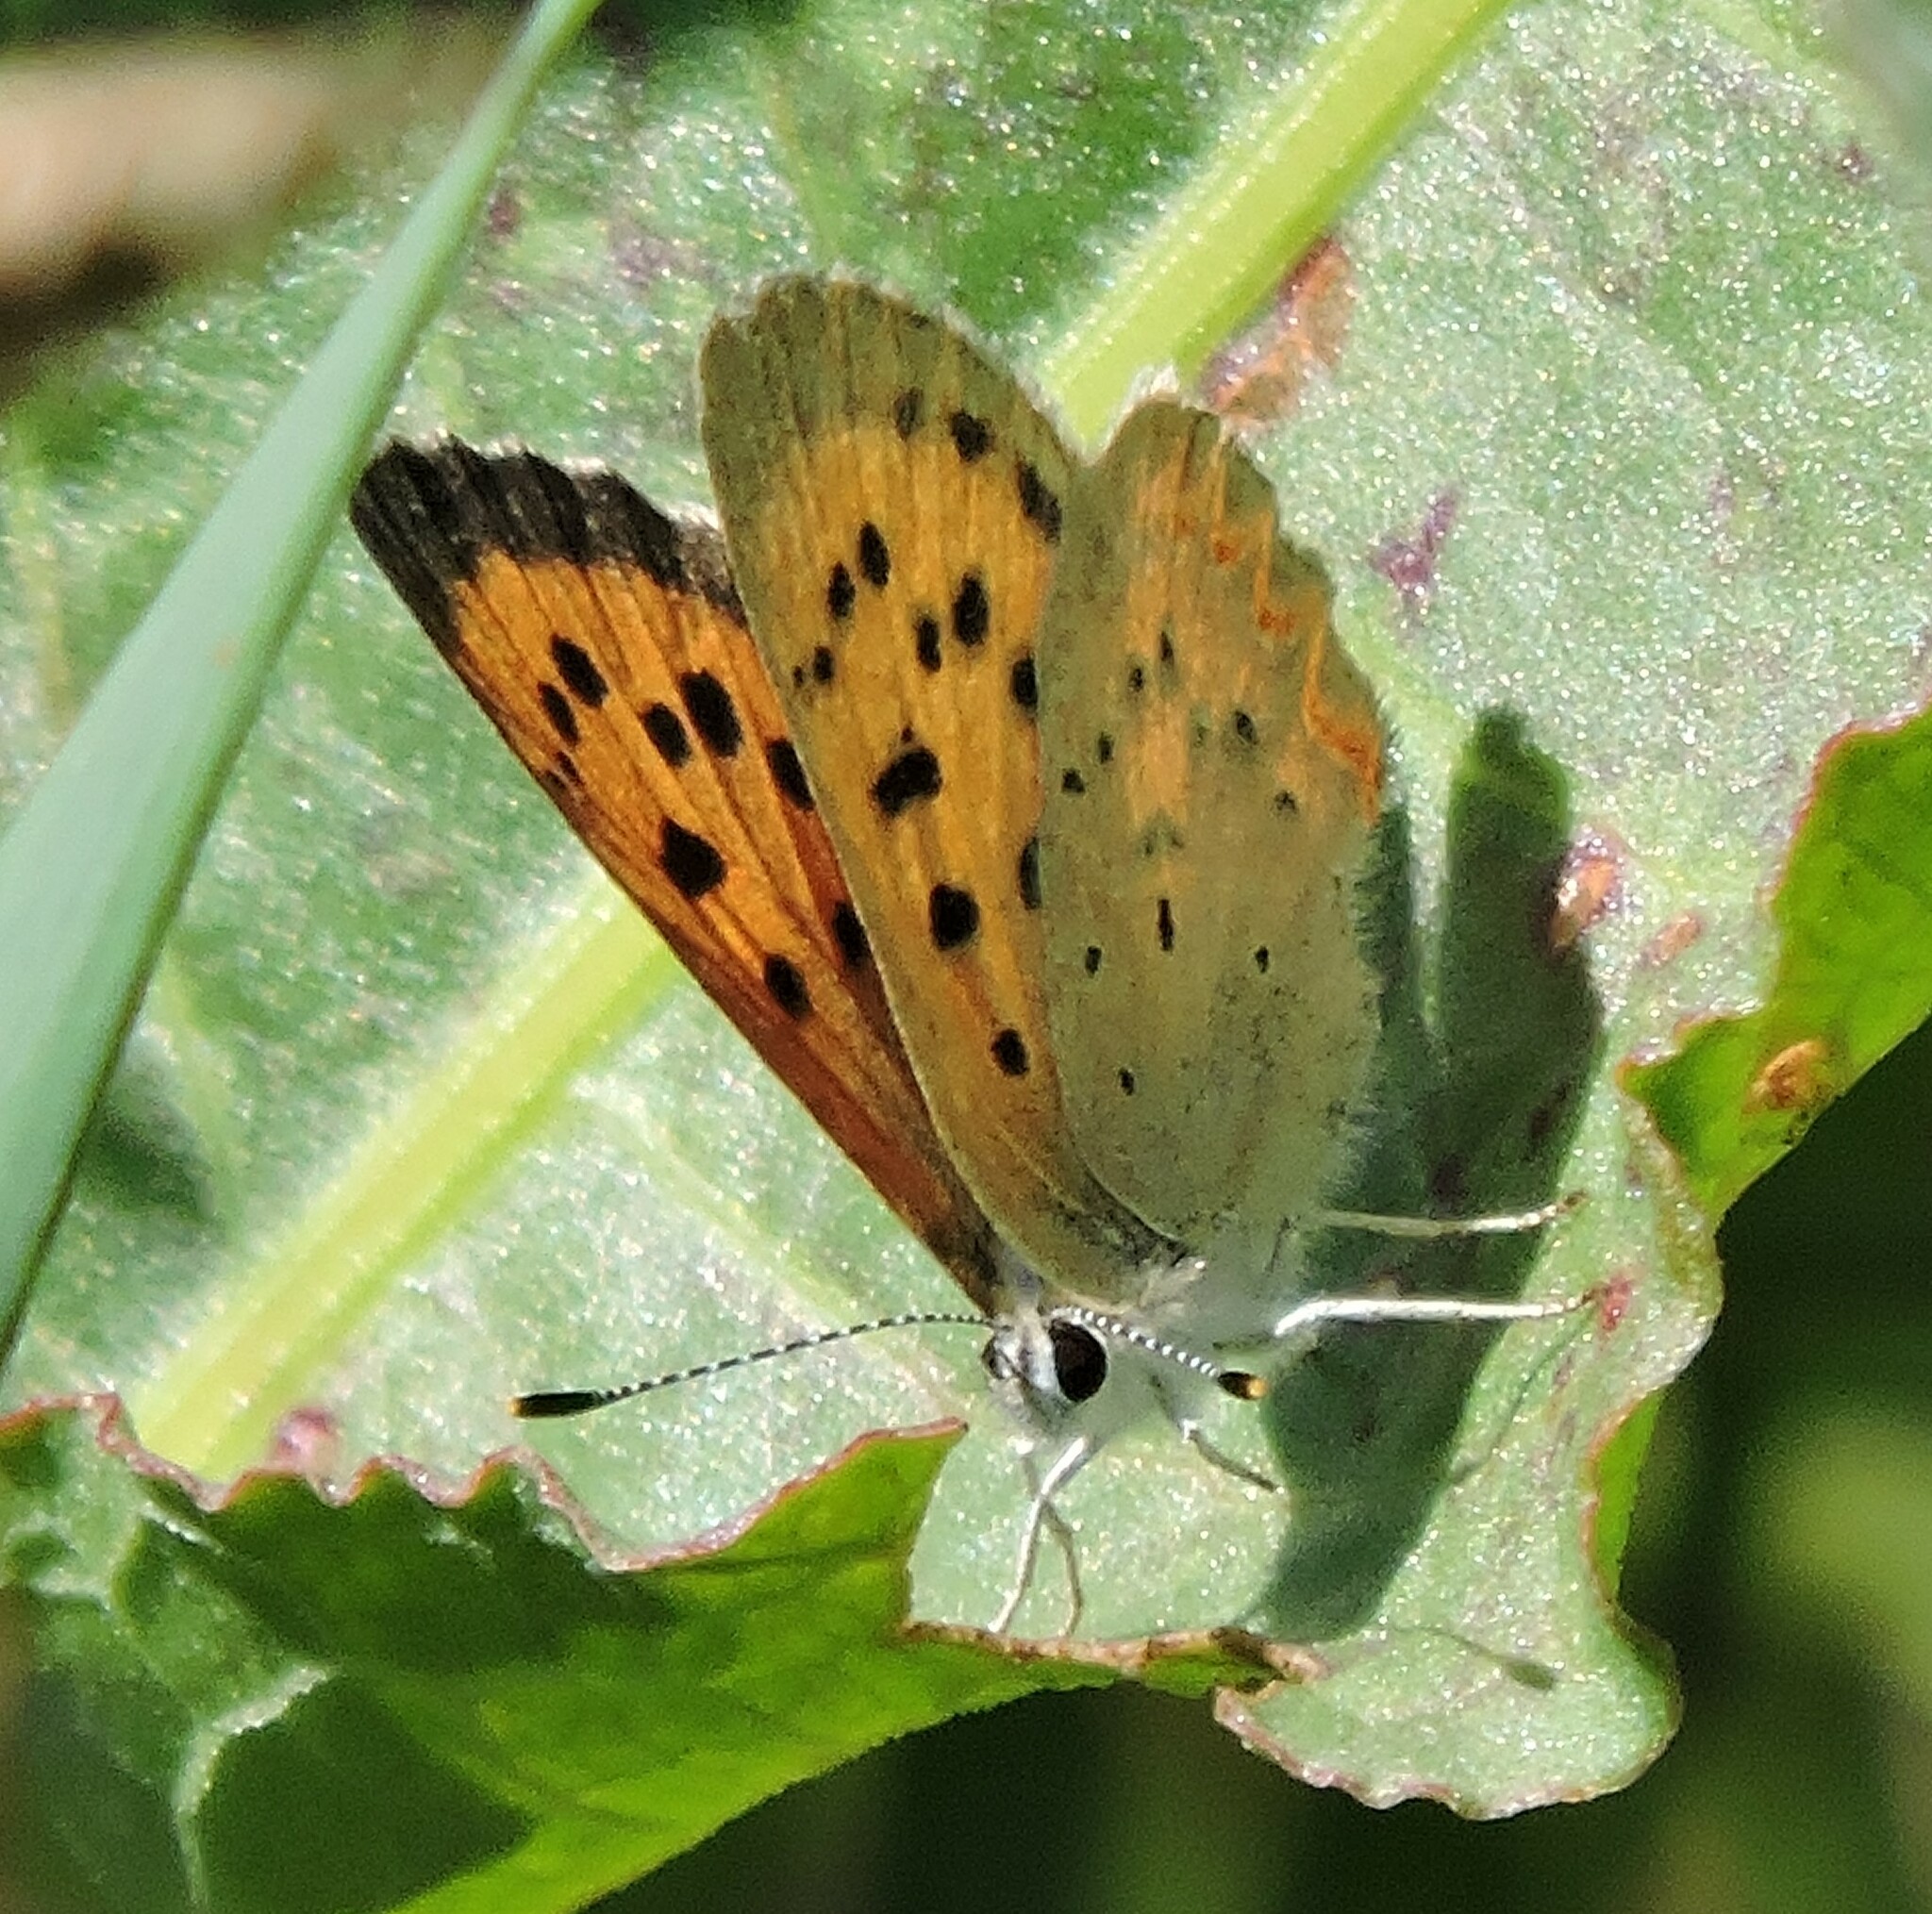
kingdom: Animalia
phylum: Arthropoda
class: Insecta
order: Lepidoptera
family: Lycaenidae
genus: Tharsalea
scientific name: Tharsalea helloides
